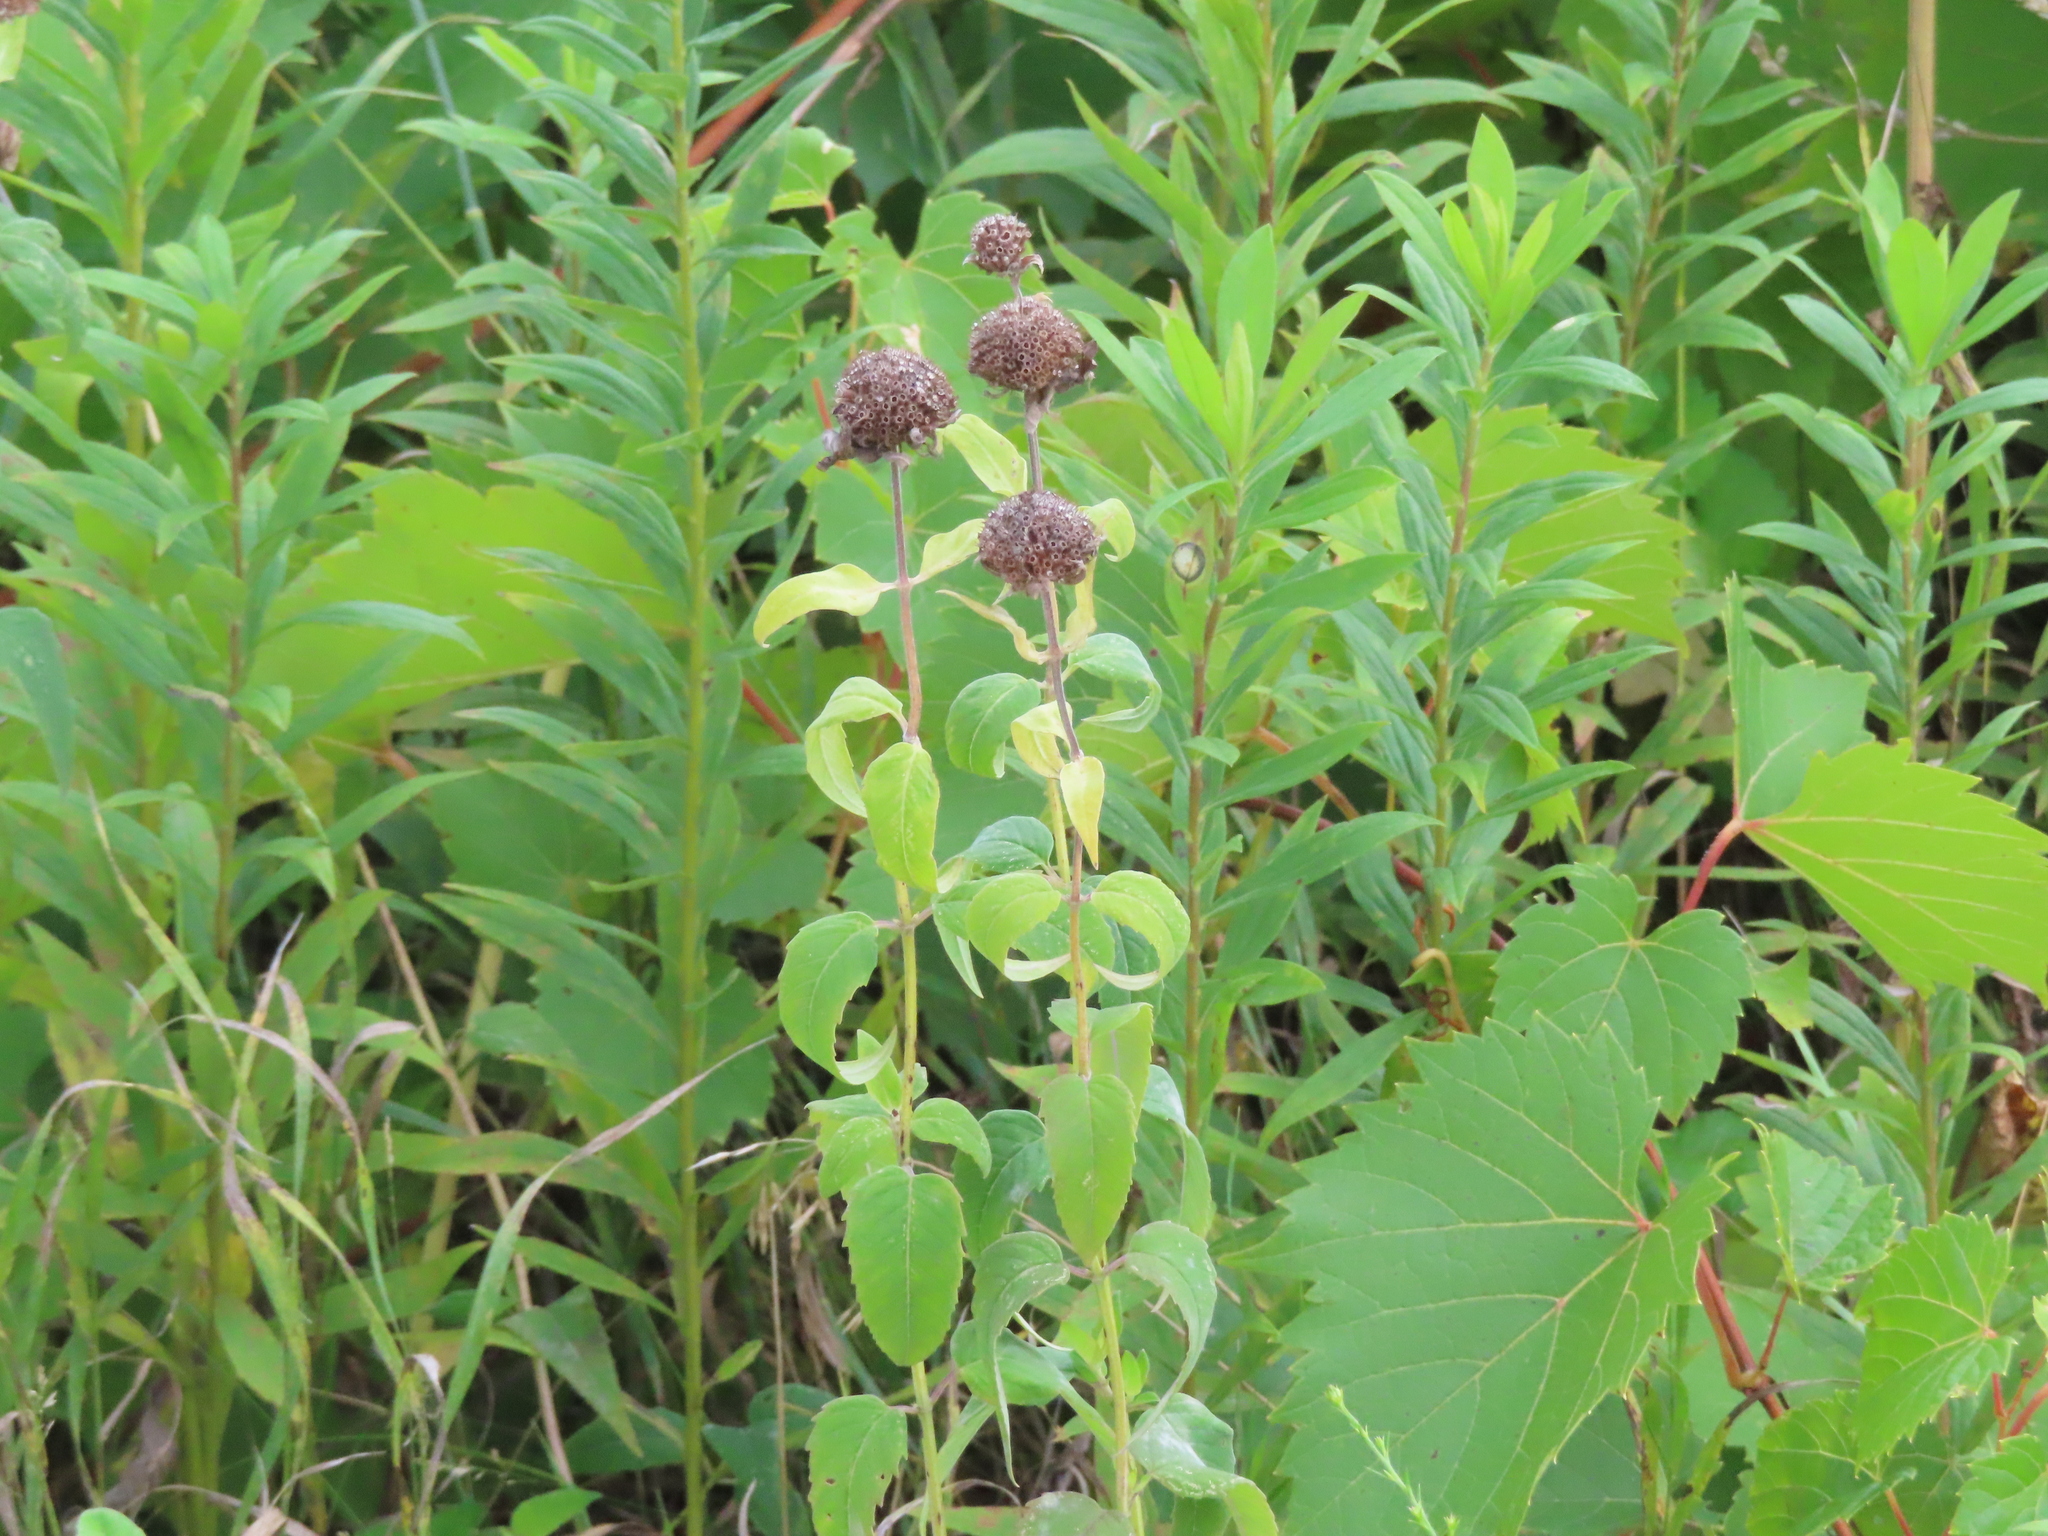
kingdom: Fungi
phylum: Ascomycota
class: Leotiomycetes
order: Helotiales
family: Erysiphaceae
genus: Golovinomyces
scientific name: Golovinomyces monardae
